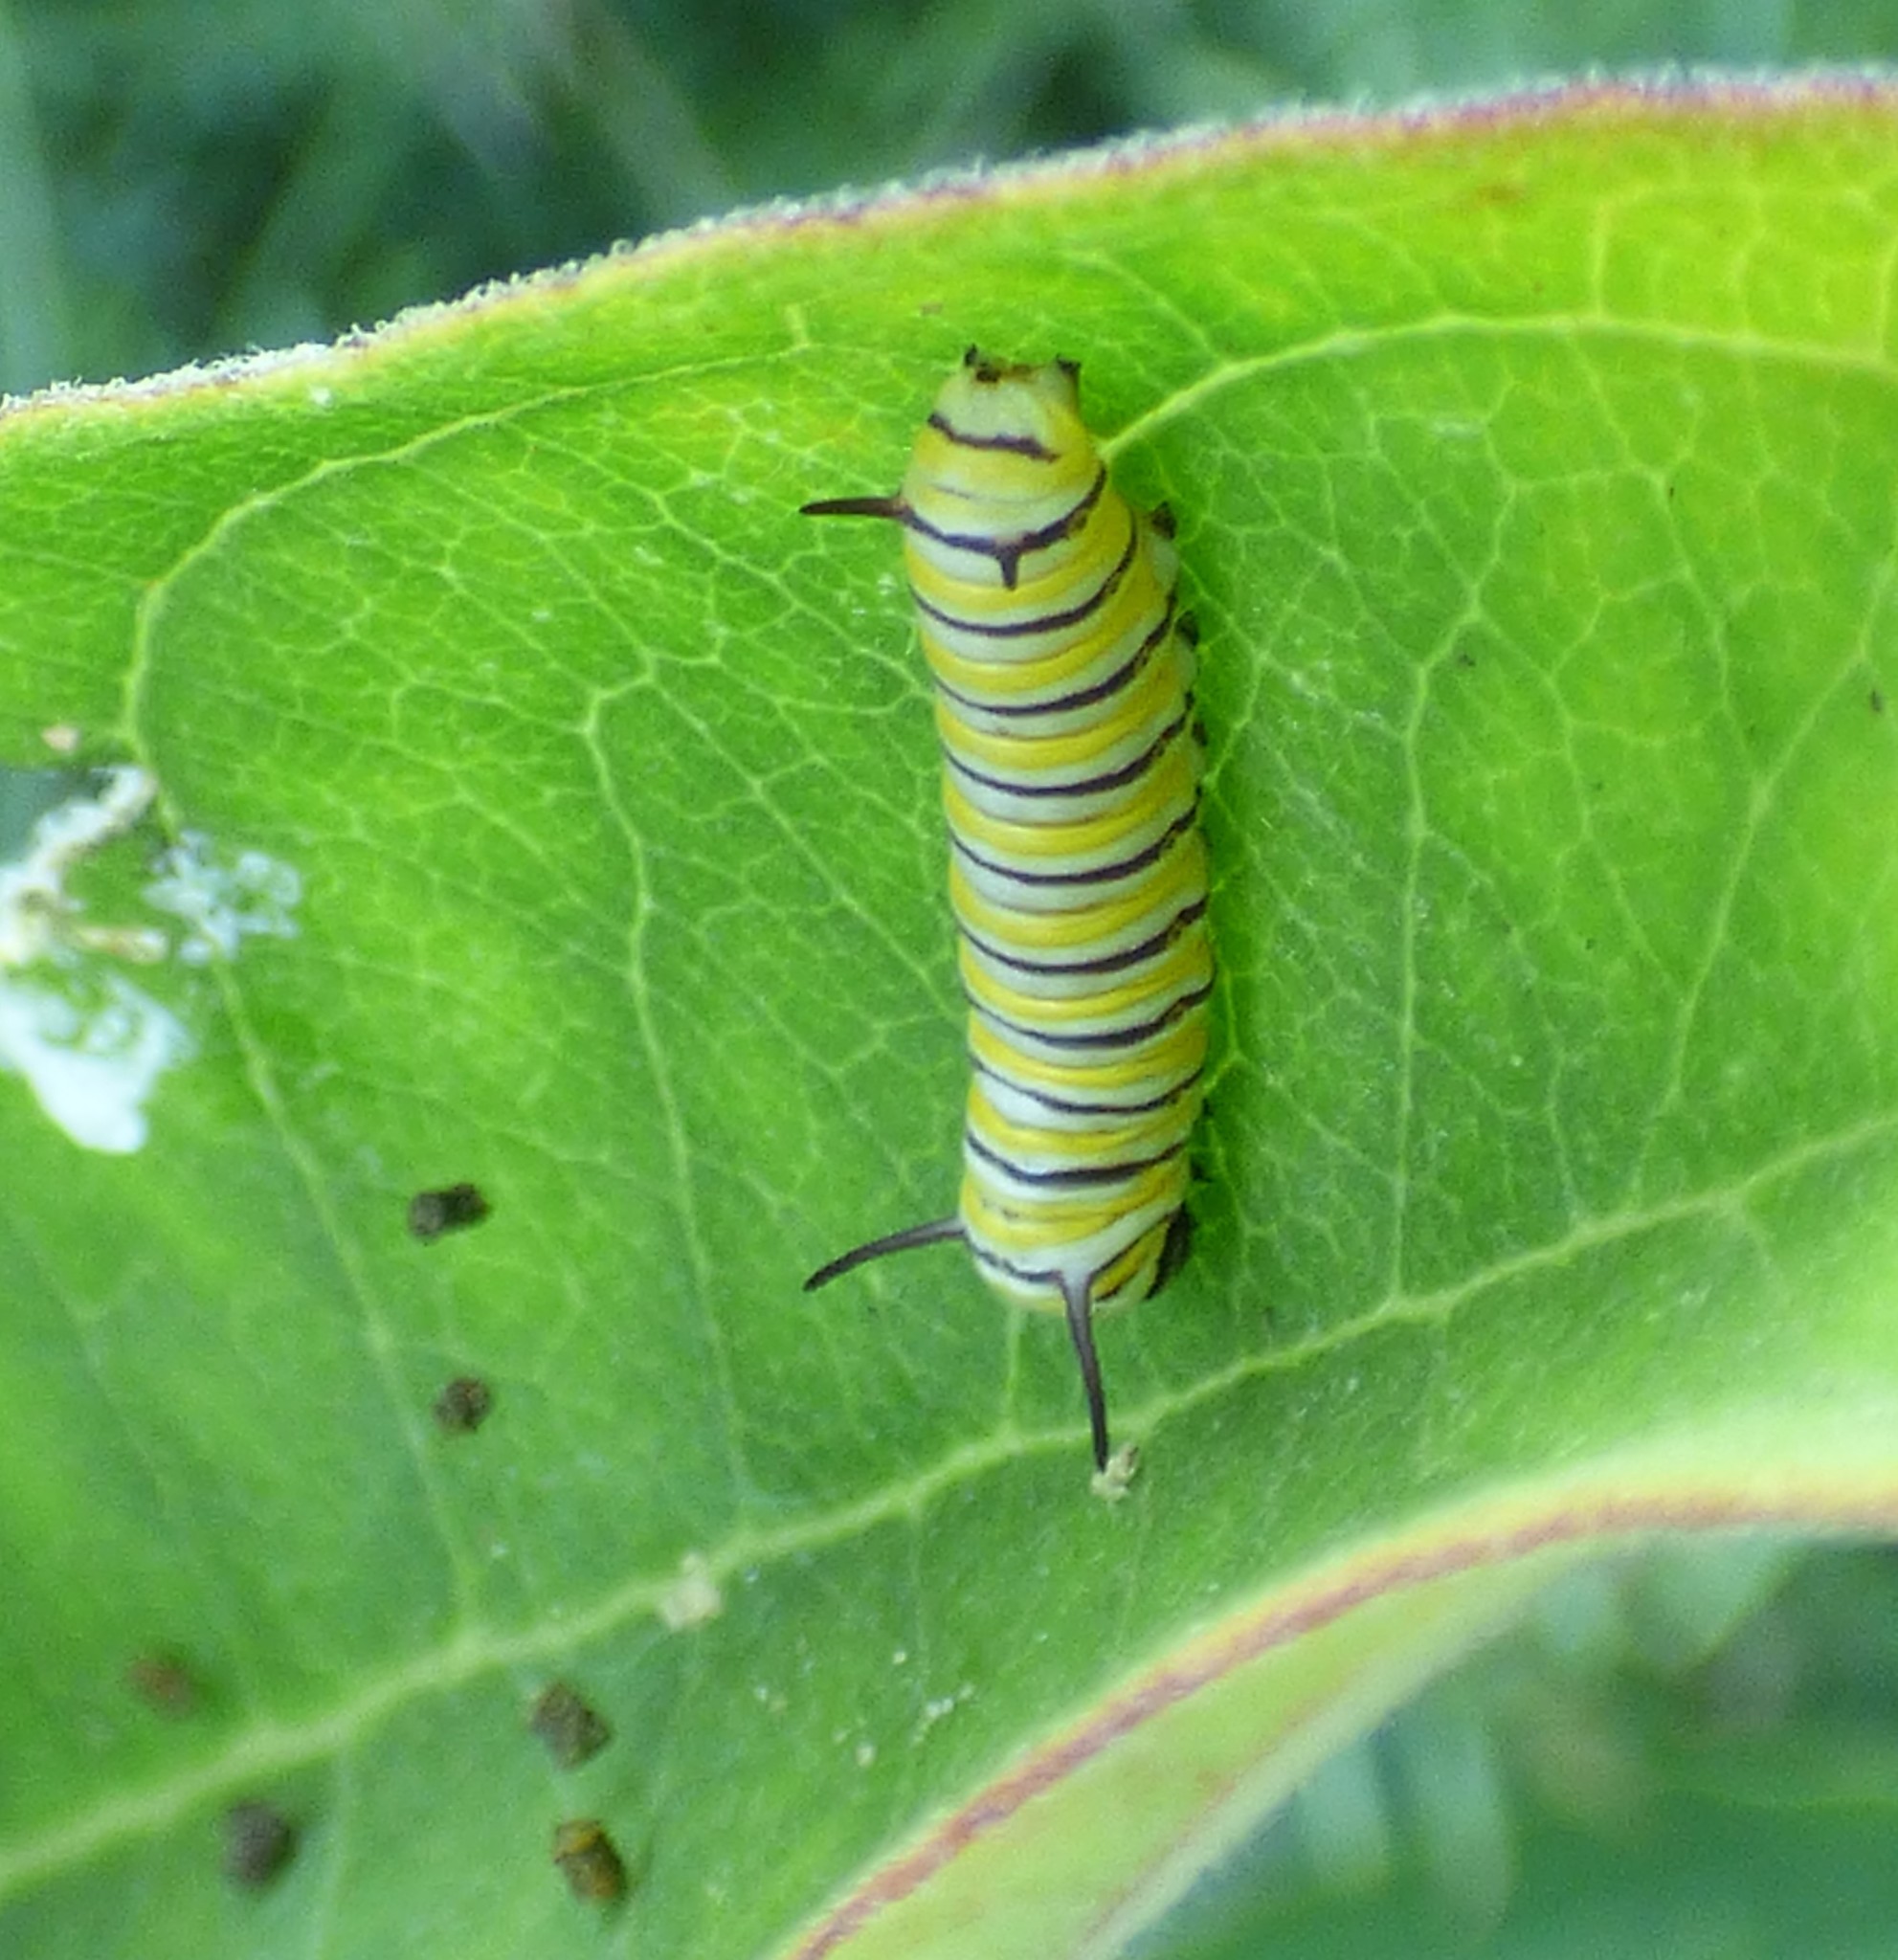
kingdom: Animalia
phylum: Arthropoda
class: Insecta
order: Lepidoptera
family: Nymphalidae
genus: Danaus
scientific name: Danaus plexippus
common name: Monarch
